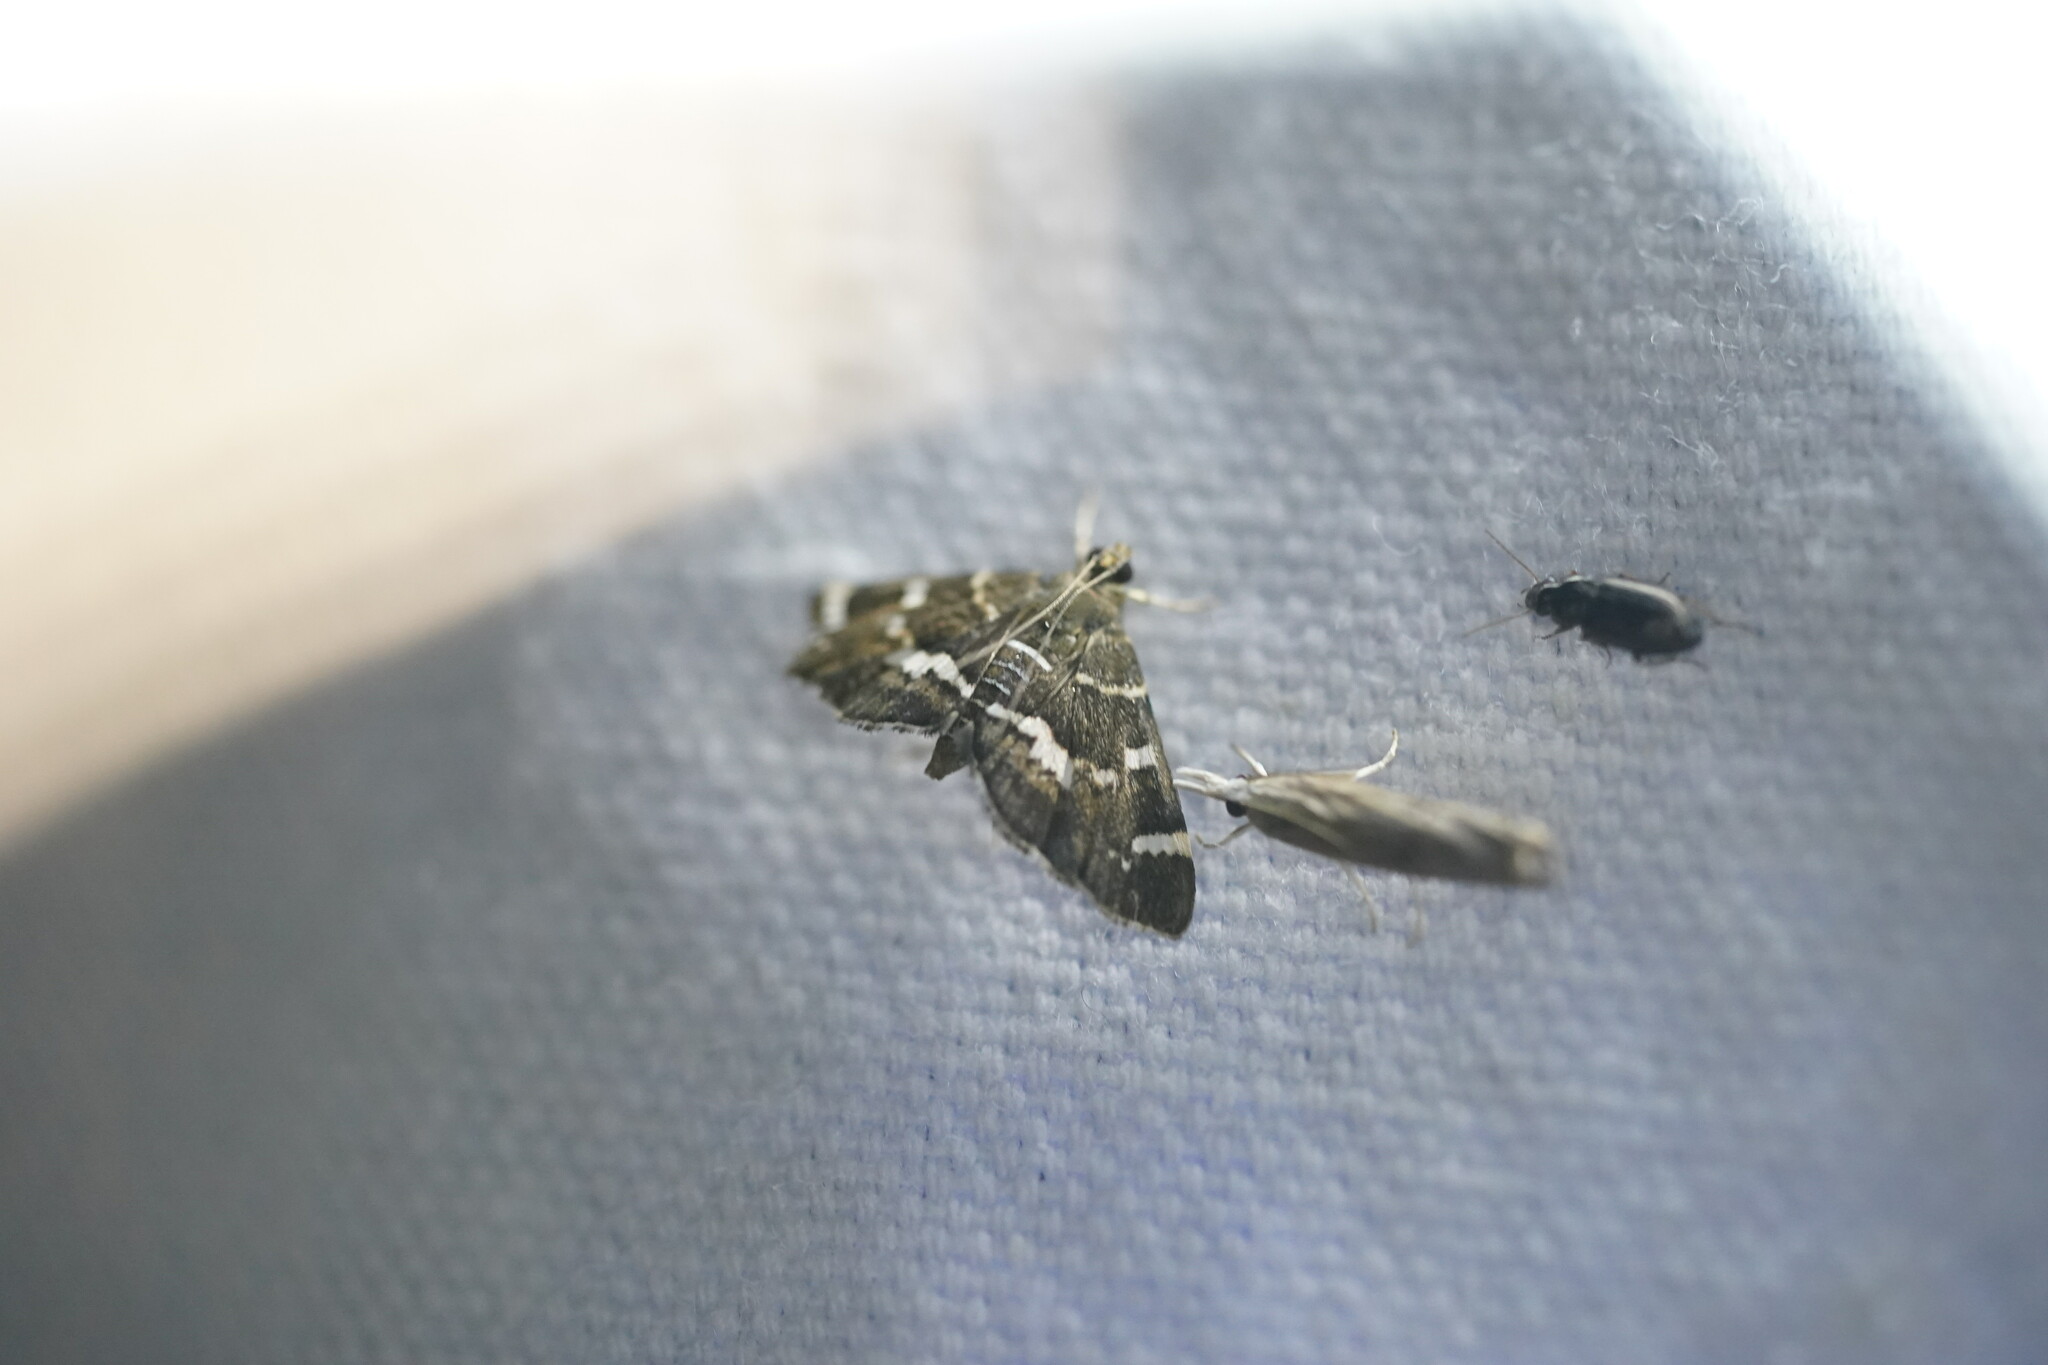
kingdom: Animalia
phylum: Arthropoda
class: Insecta
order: Lepidoptera
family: Crambidae
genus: Hymenia
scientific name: Hymenia perspectalis
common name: Spotted beet webworm
